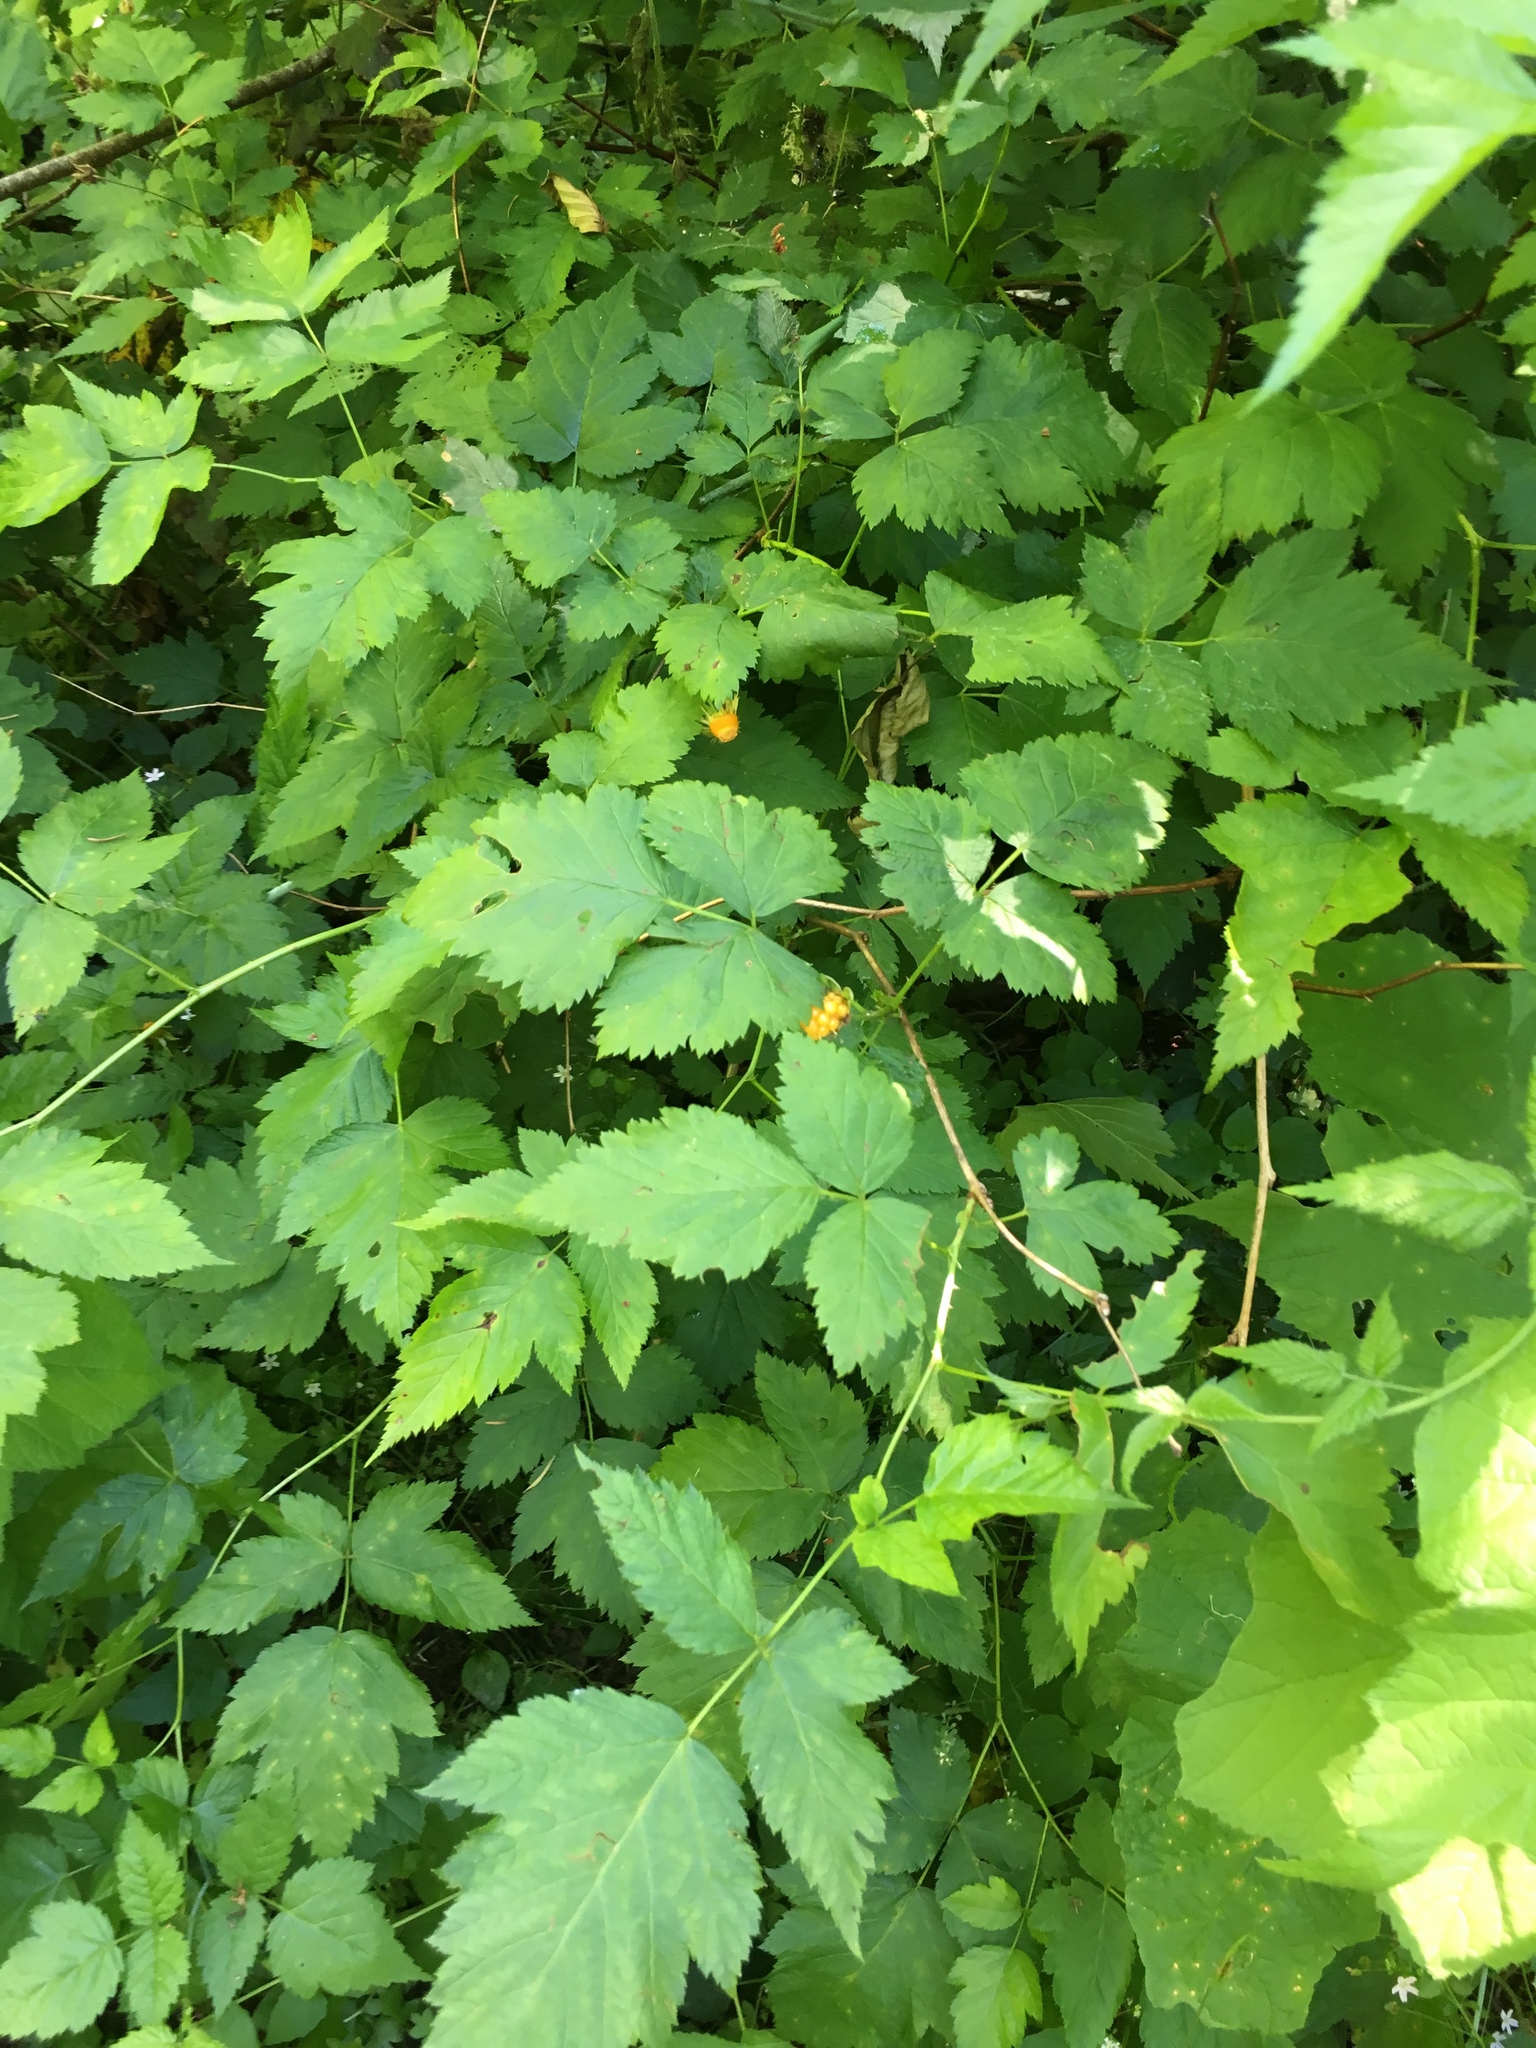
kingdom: Plantae
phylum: Tracheophyta
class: Magnoliopsida
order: Rosales
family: Rosaceae
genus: Rubus
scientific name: Rubus spectabilis
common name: Salmonberry
